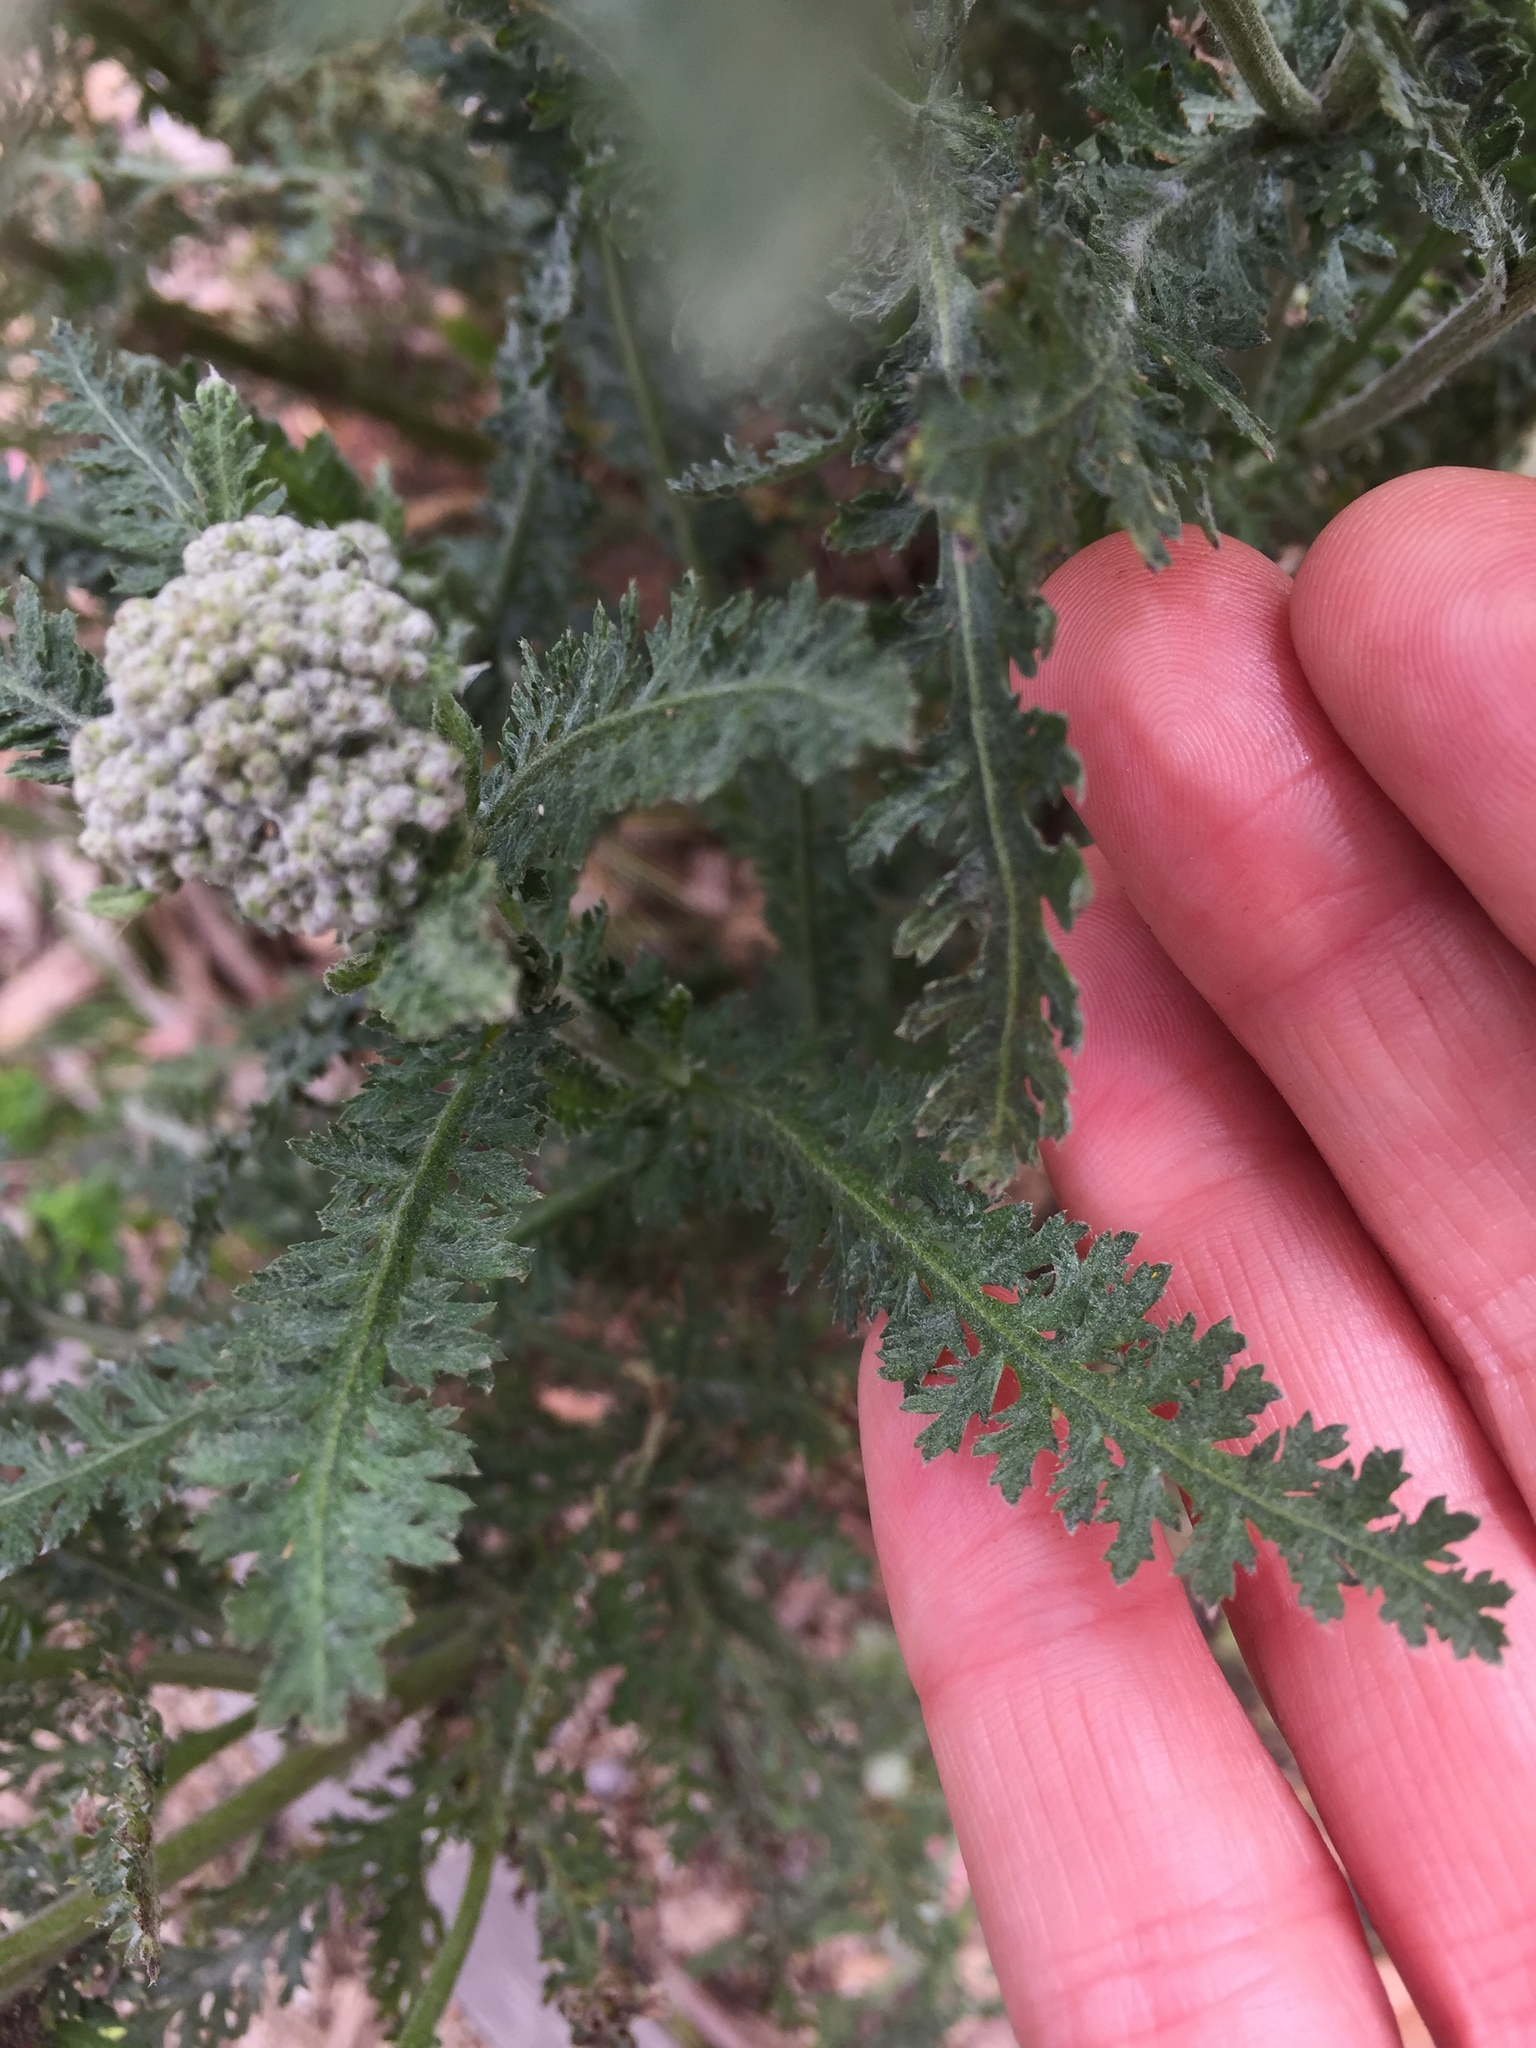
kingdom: Plantae
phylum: Tracheophyta
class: Magnoliopsida
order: Asterales
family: Asteraceae
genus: Achillea
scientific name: Achillea millefolium
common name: Yarrow
